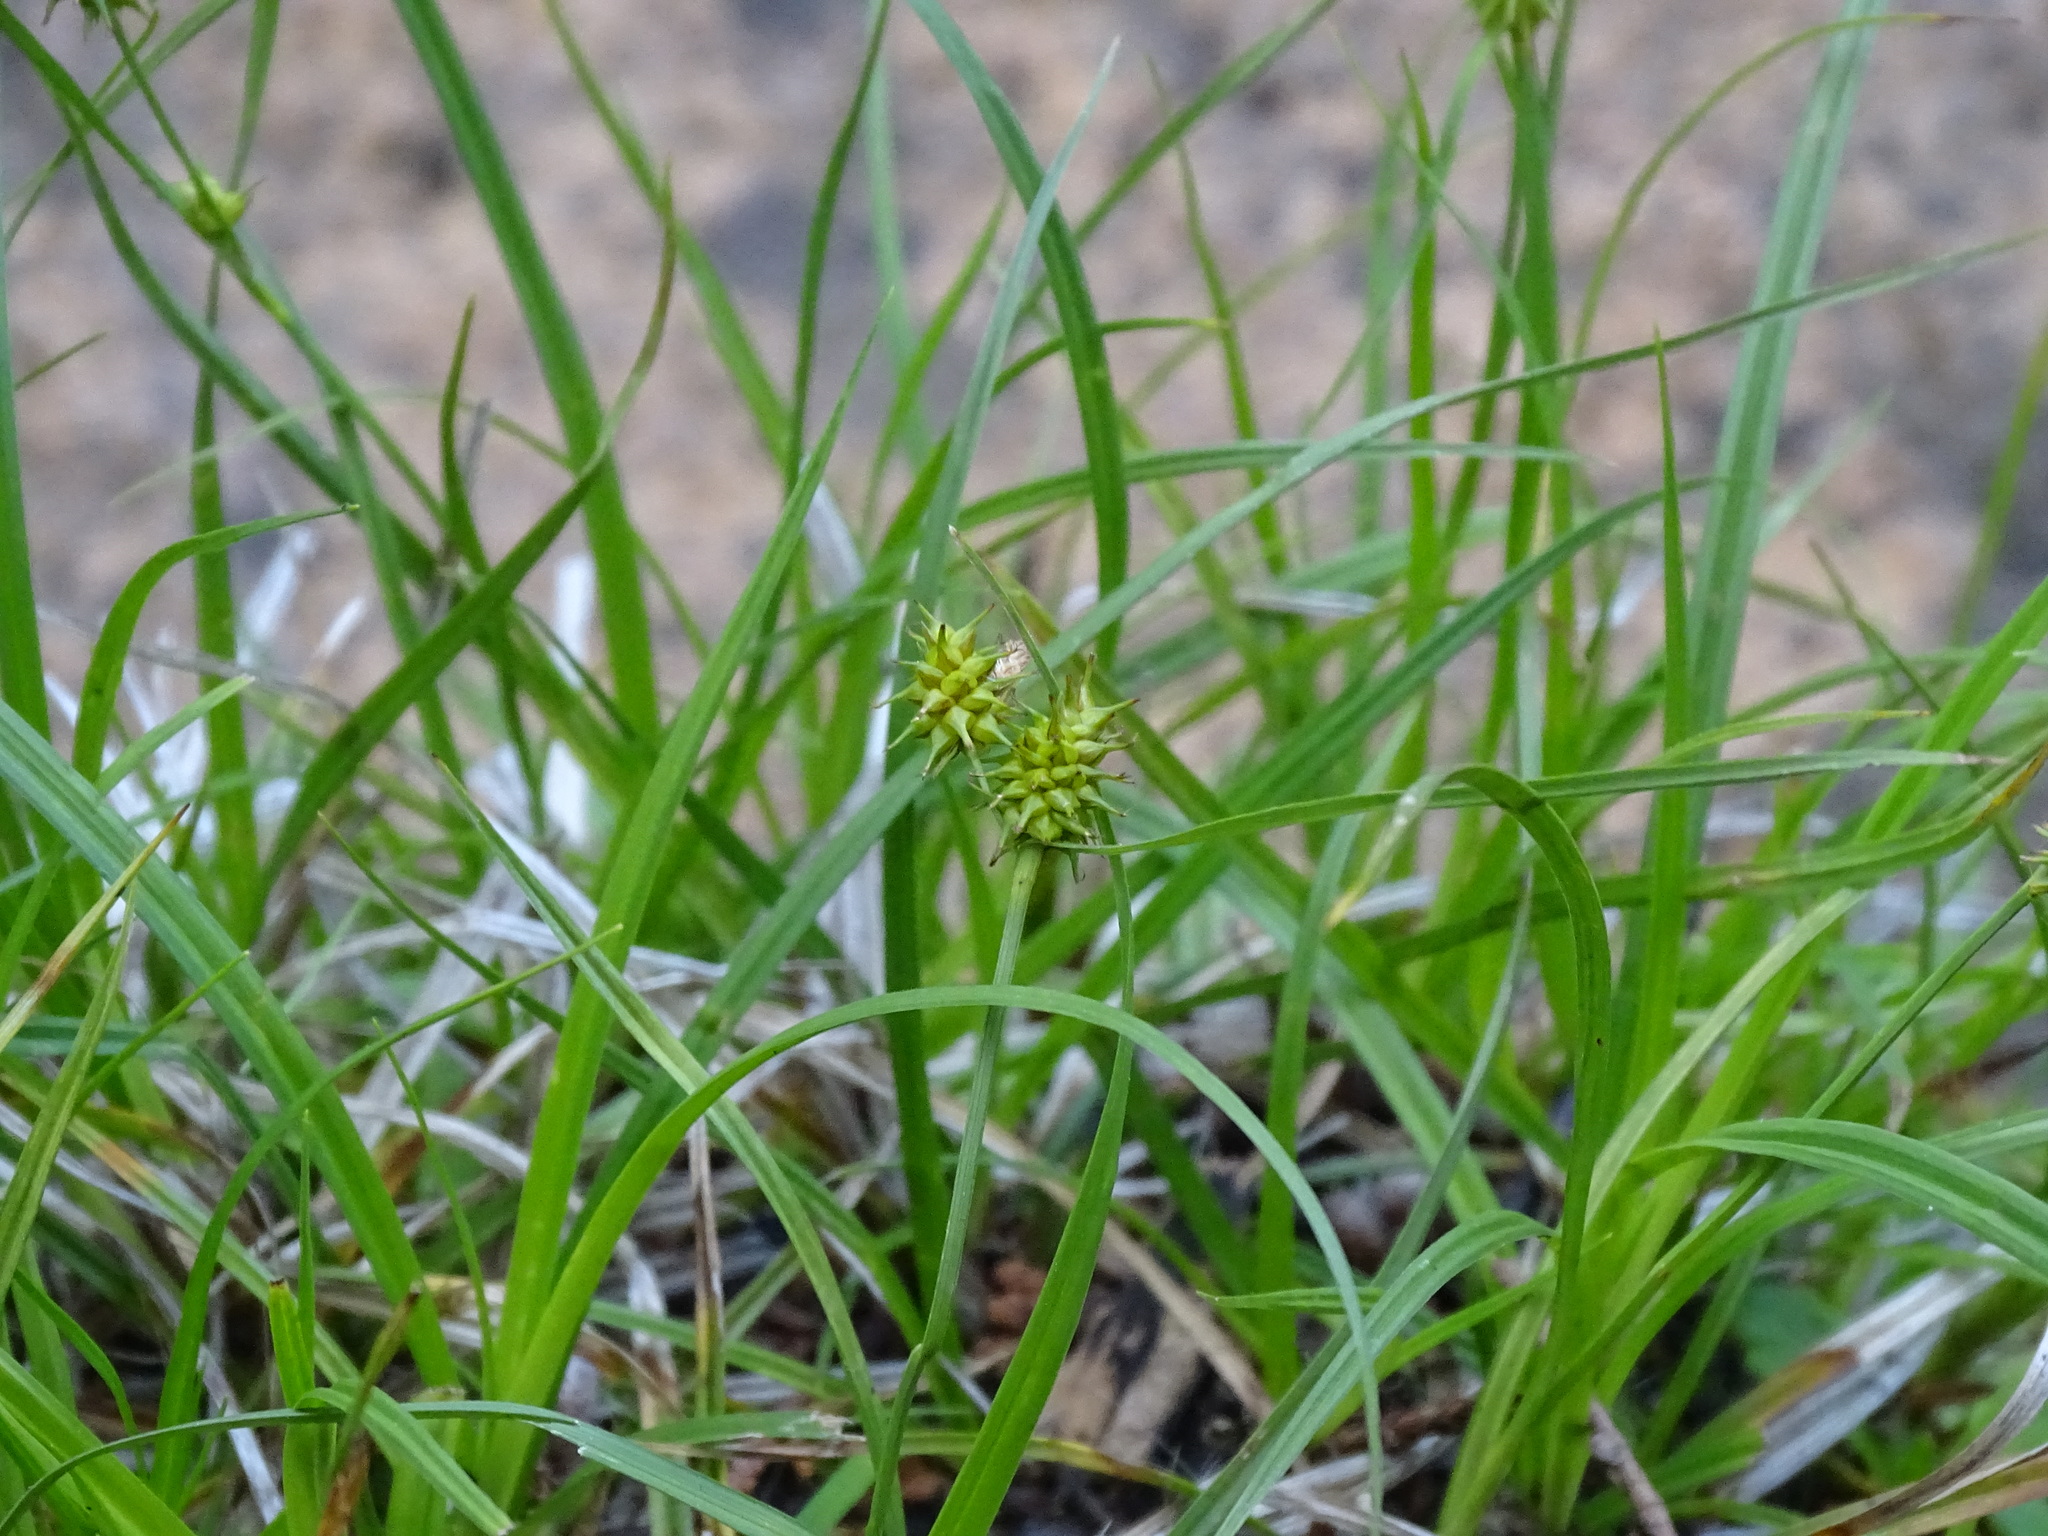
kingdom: Plantae
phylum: Tracheophyta
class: Liliopsida
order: Poales
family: Cyperaceae
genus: Carex
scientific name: Carex flava
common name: Large yellow-sedge
